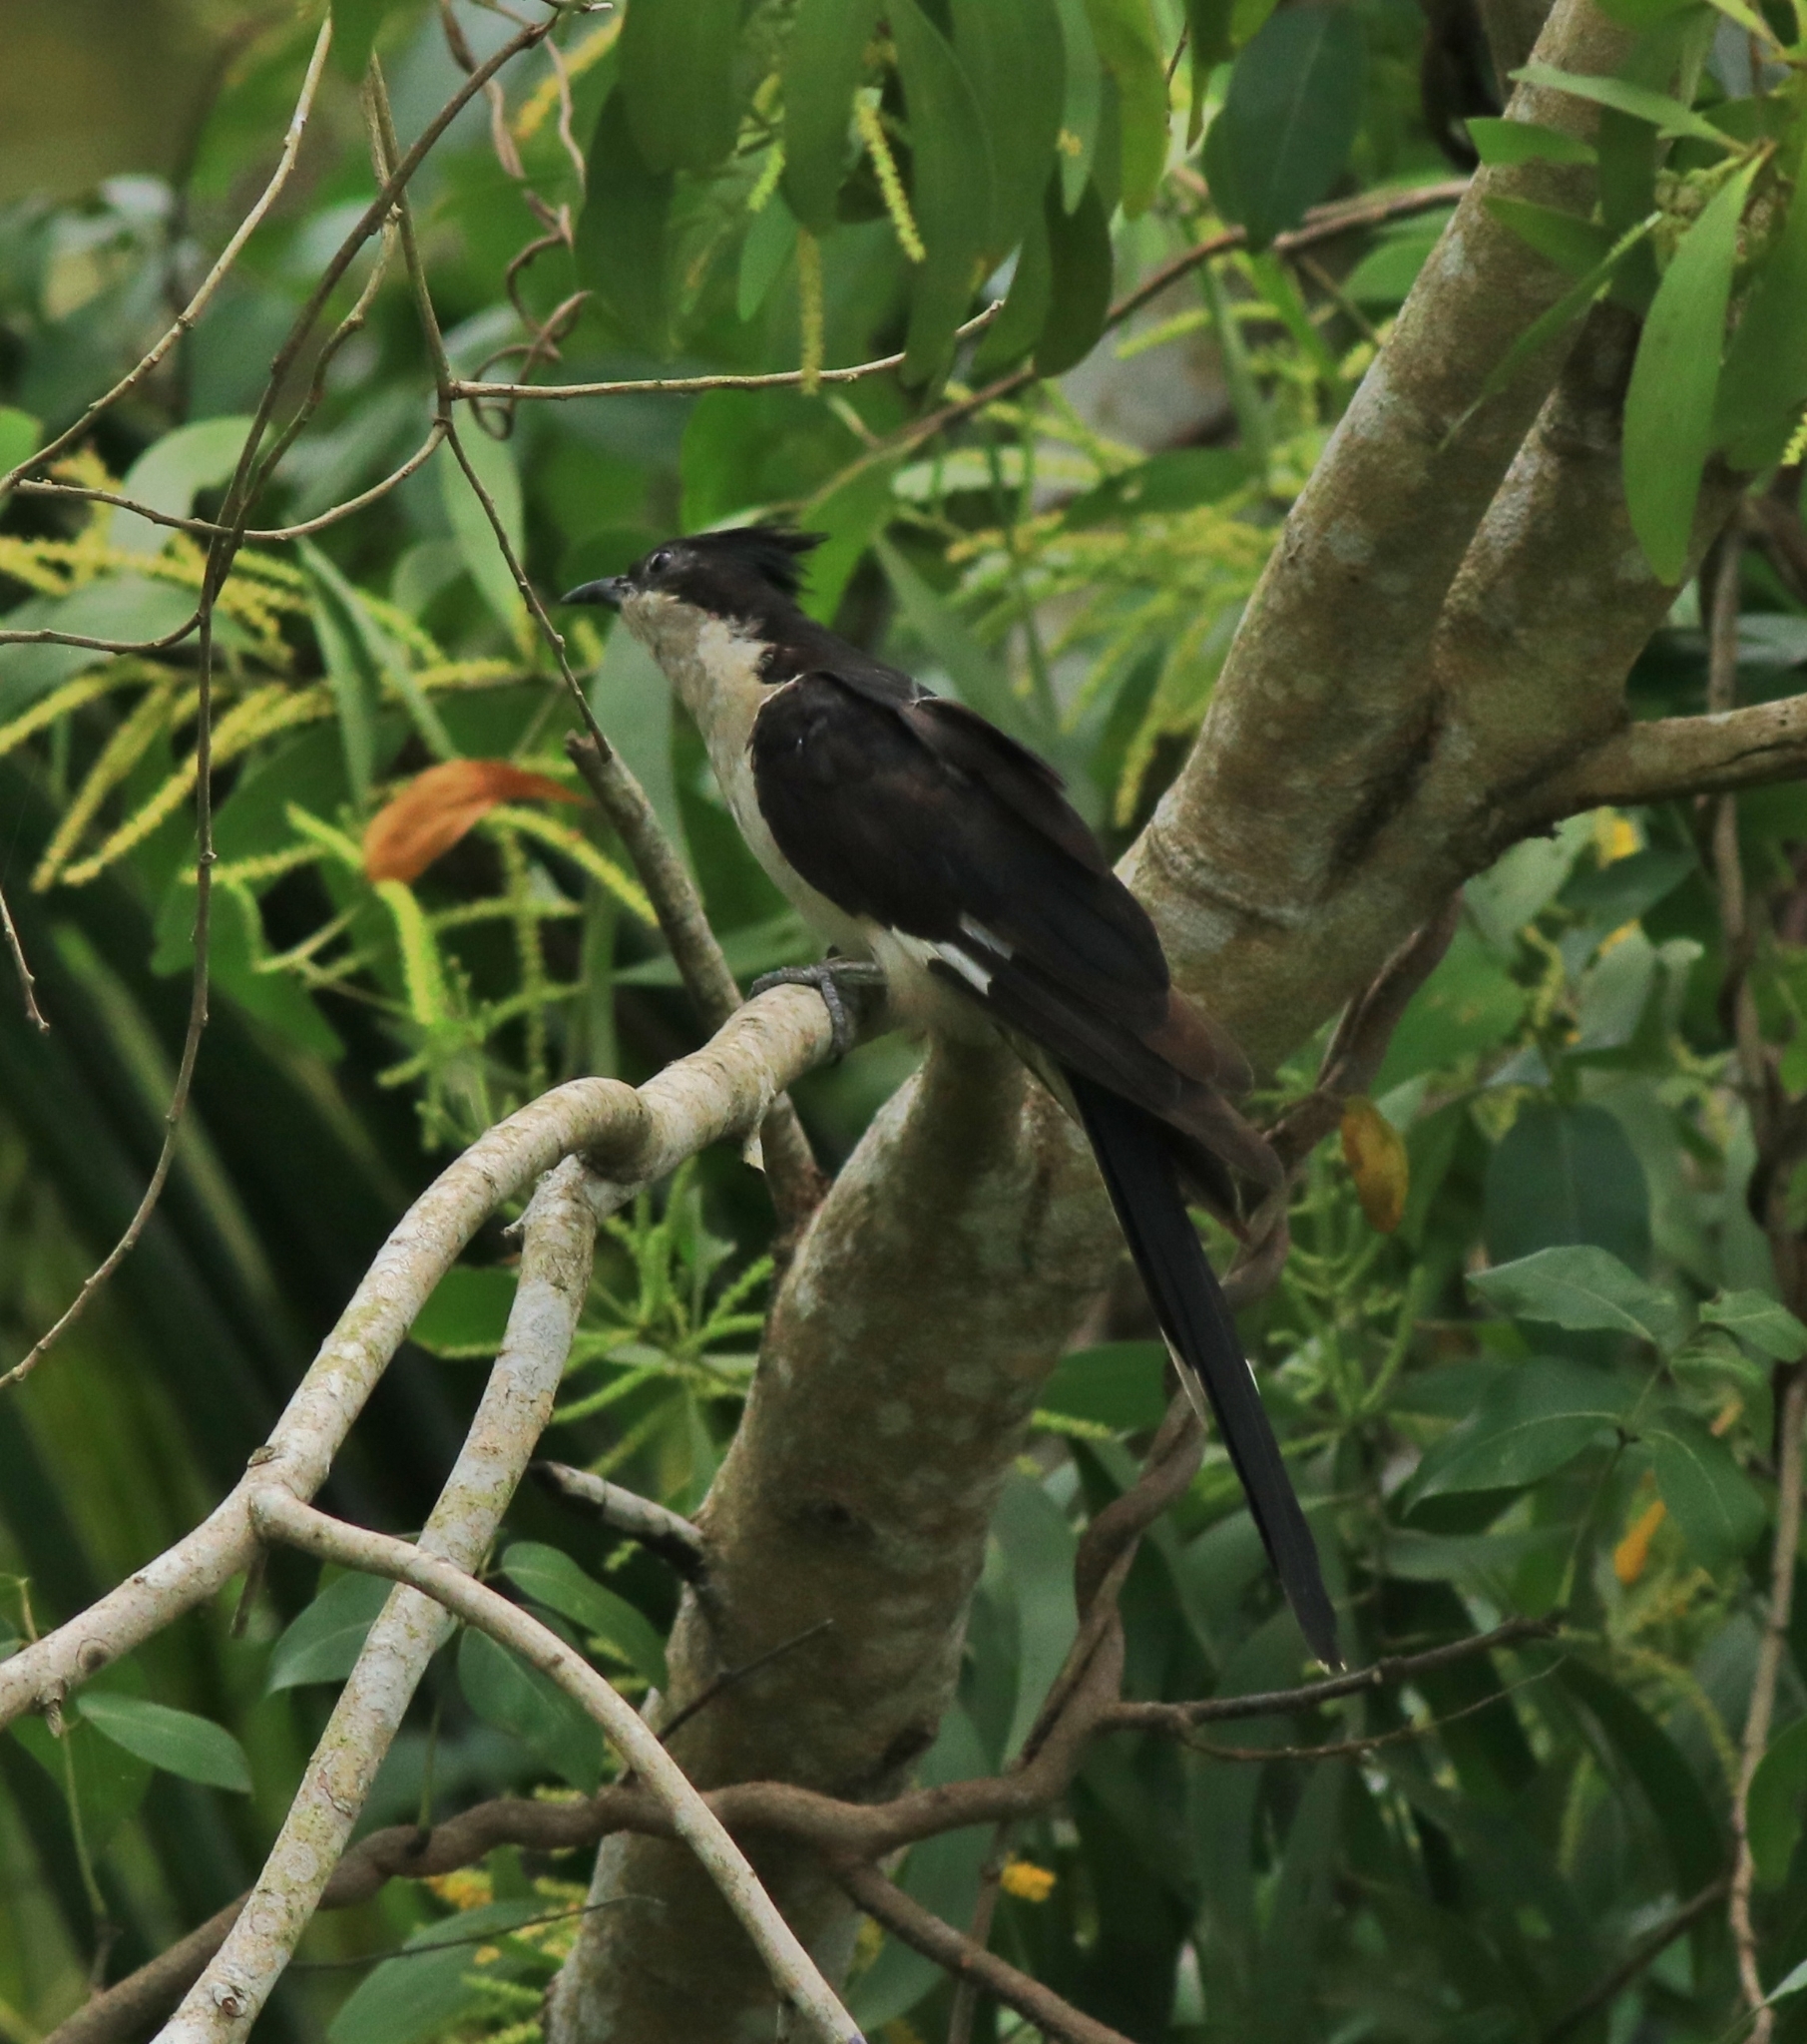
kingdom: Animalia
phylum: Chordata
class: Aves
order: Cuculiformes
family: Cuculidae
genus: Clamator
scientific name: Clamator jacobinus
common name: Jacobin cuckoo
